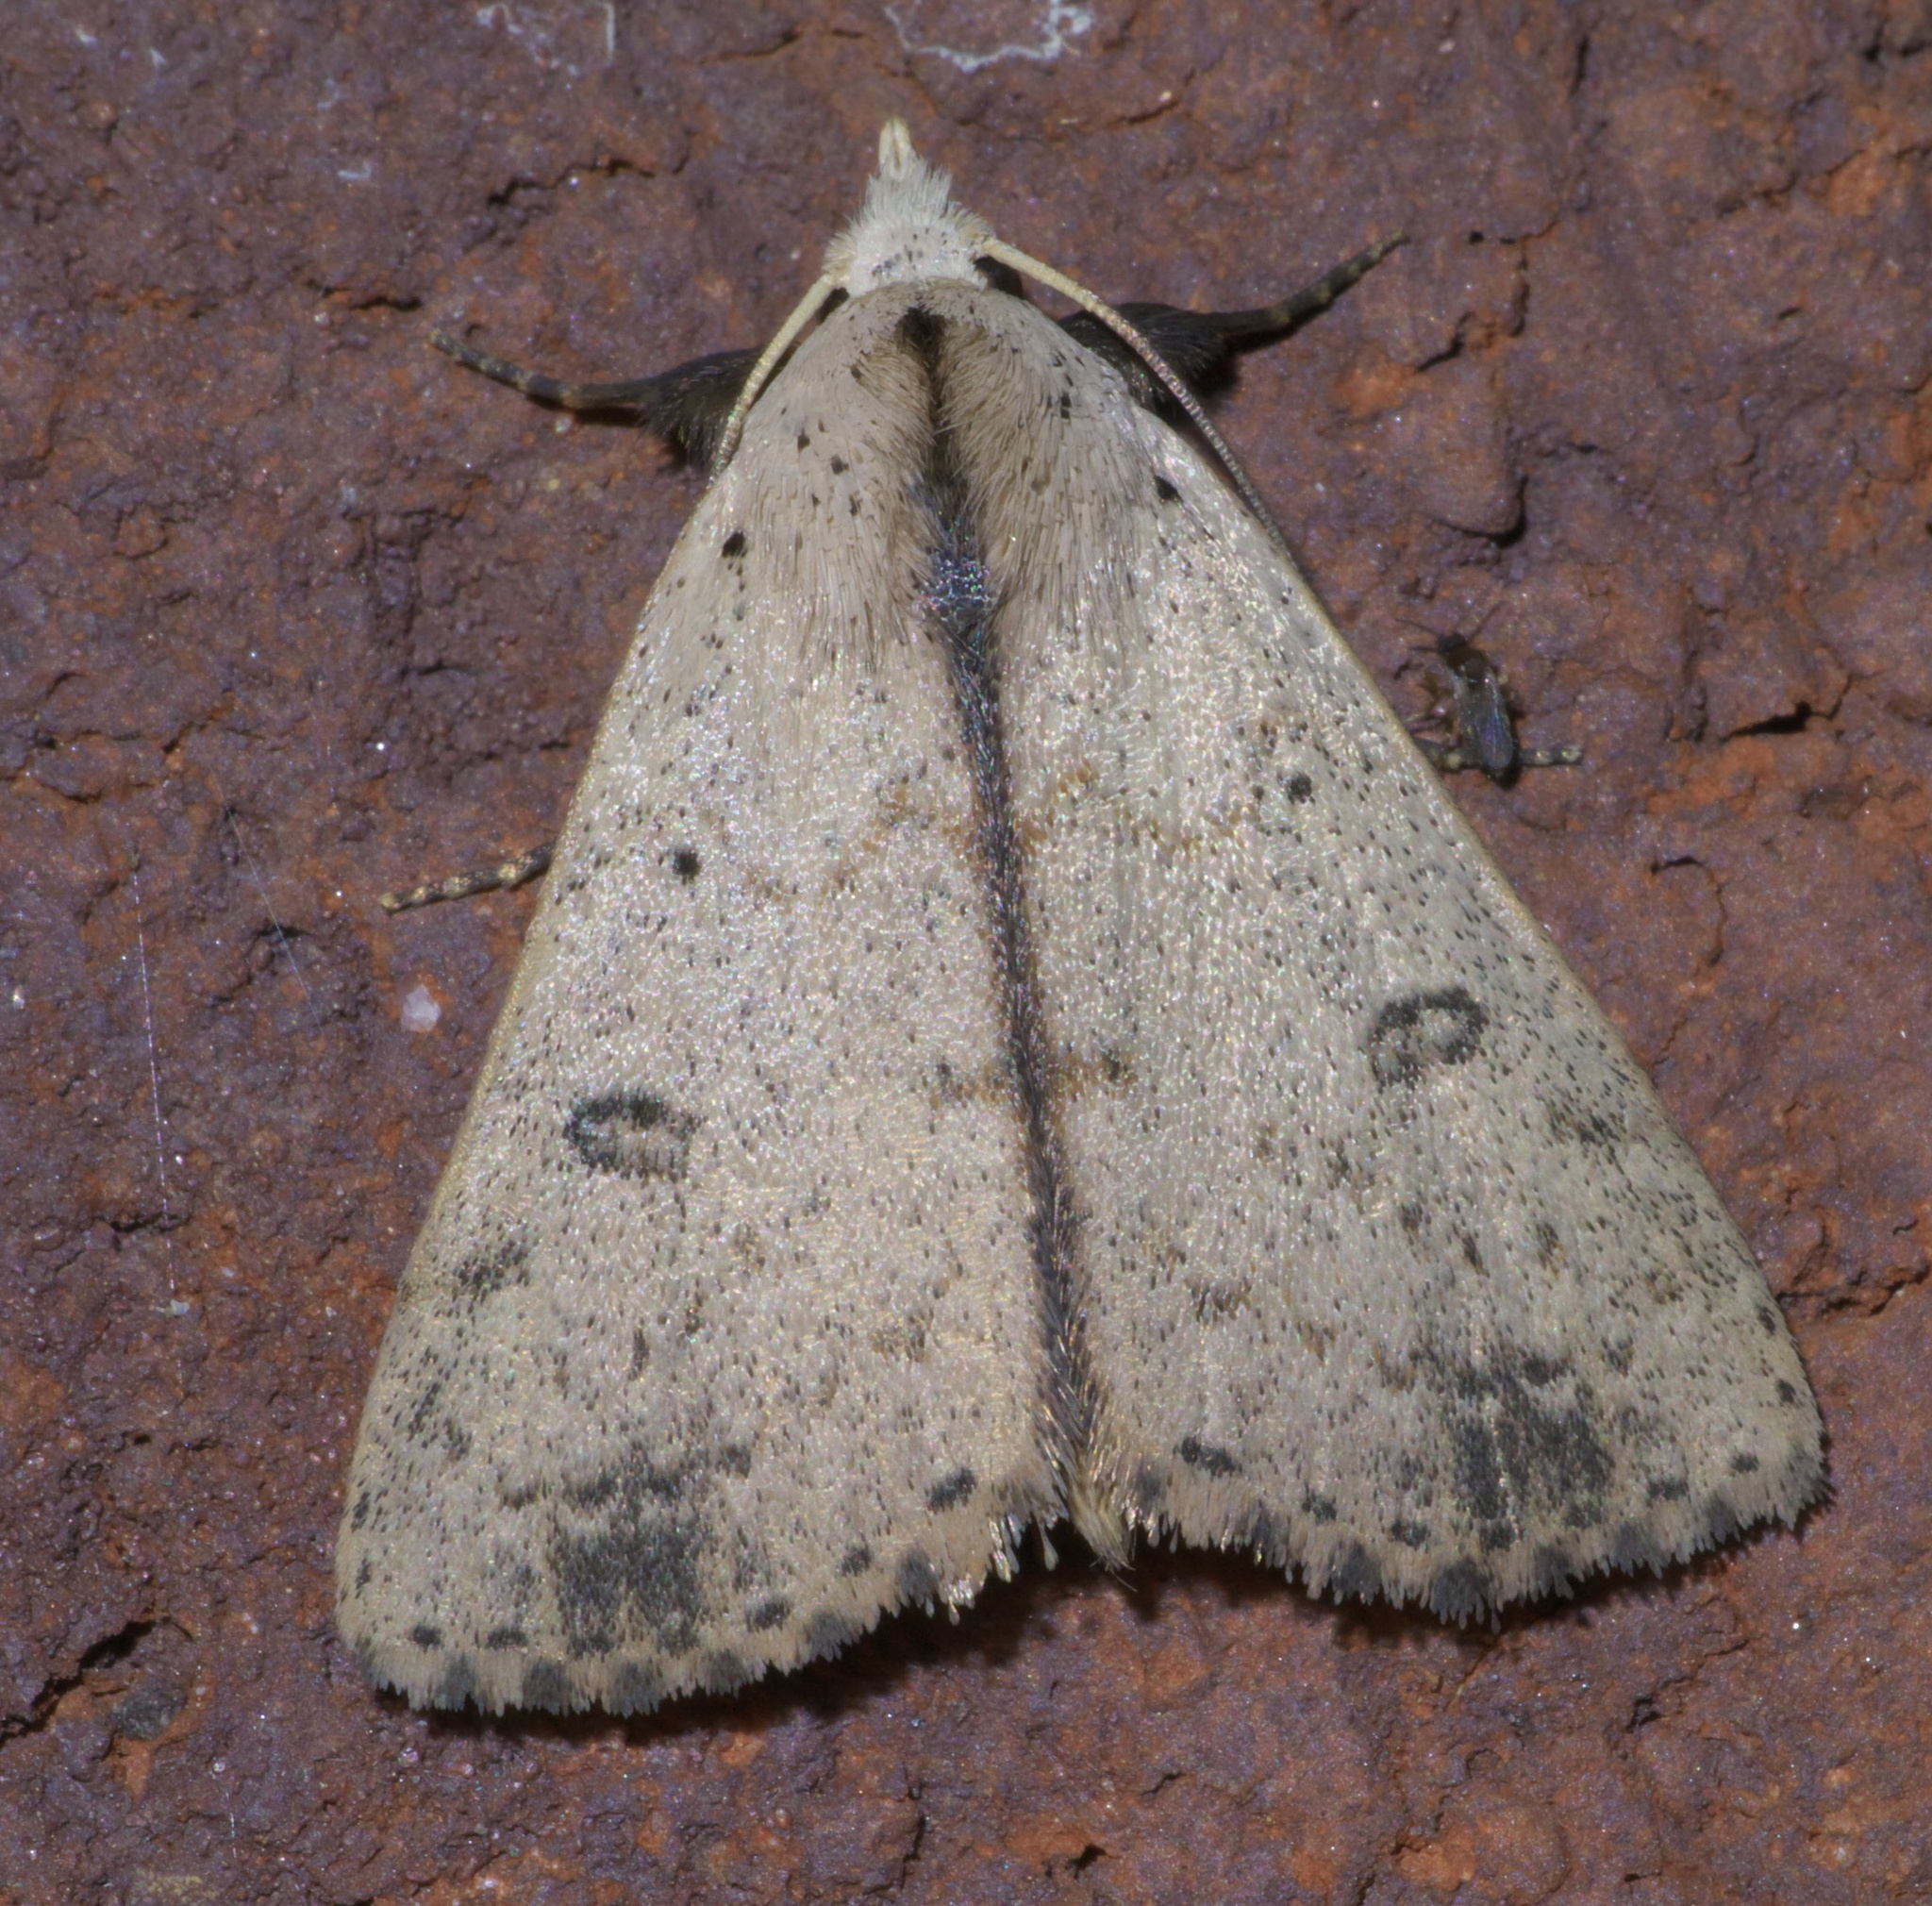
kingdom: Animalia
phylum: Arthropoda
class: Insecta
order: Lepidoptera
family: Erebidae
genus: Scolecocampa
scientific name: Scolecocampa liburna
